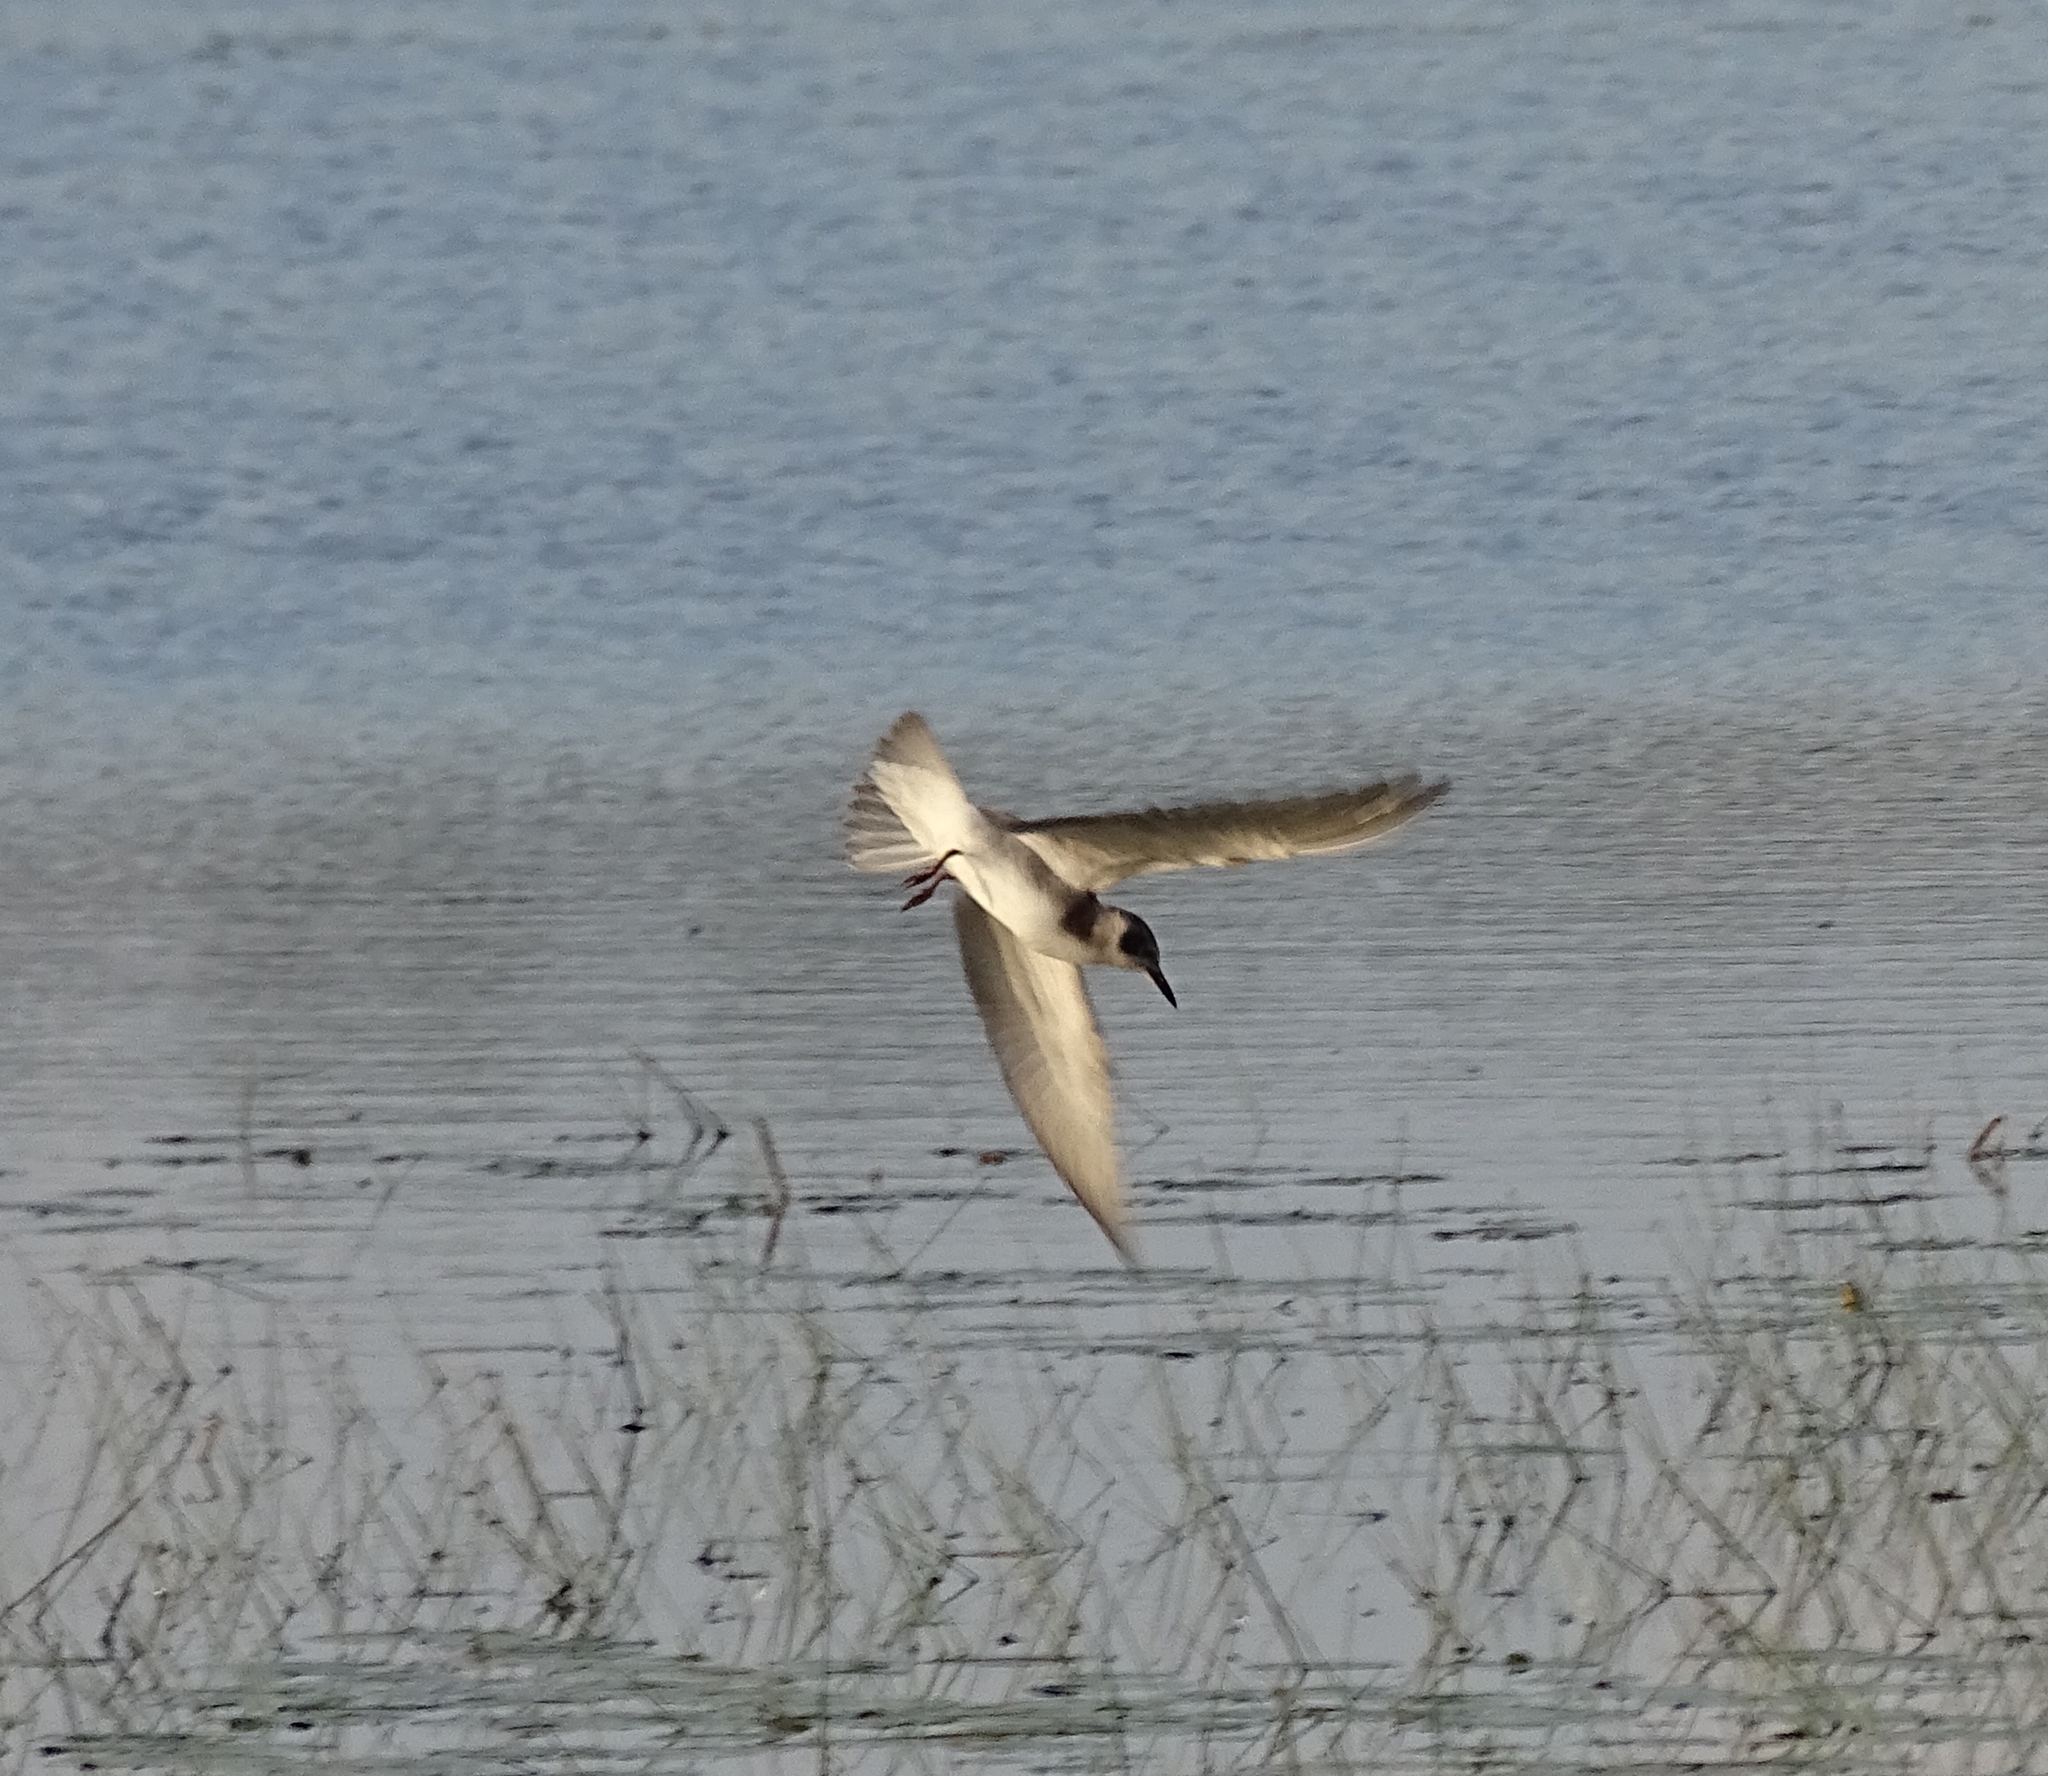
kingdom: Animalia
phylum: Chordata
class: Aves
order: Charadriiformes
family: Laridae
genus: Chlidonias
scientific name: Chlidonias niger
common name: Black tern
